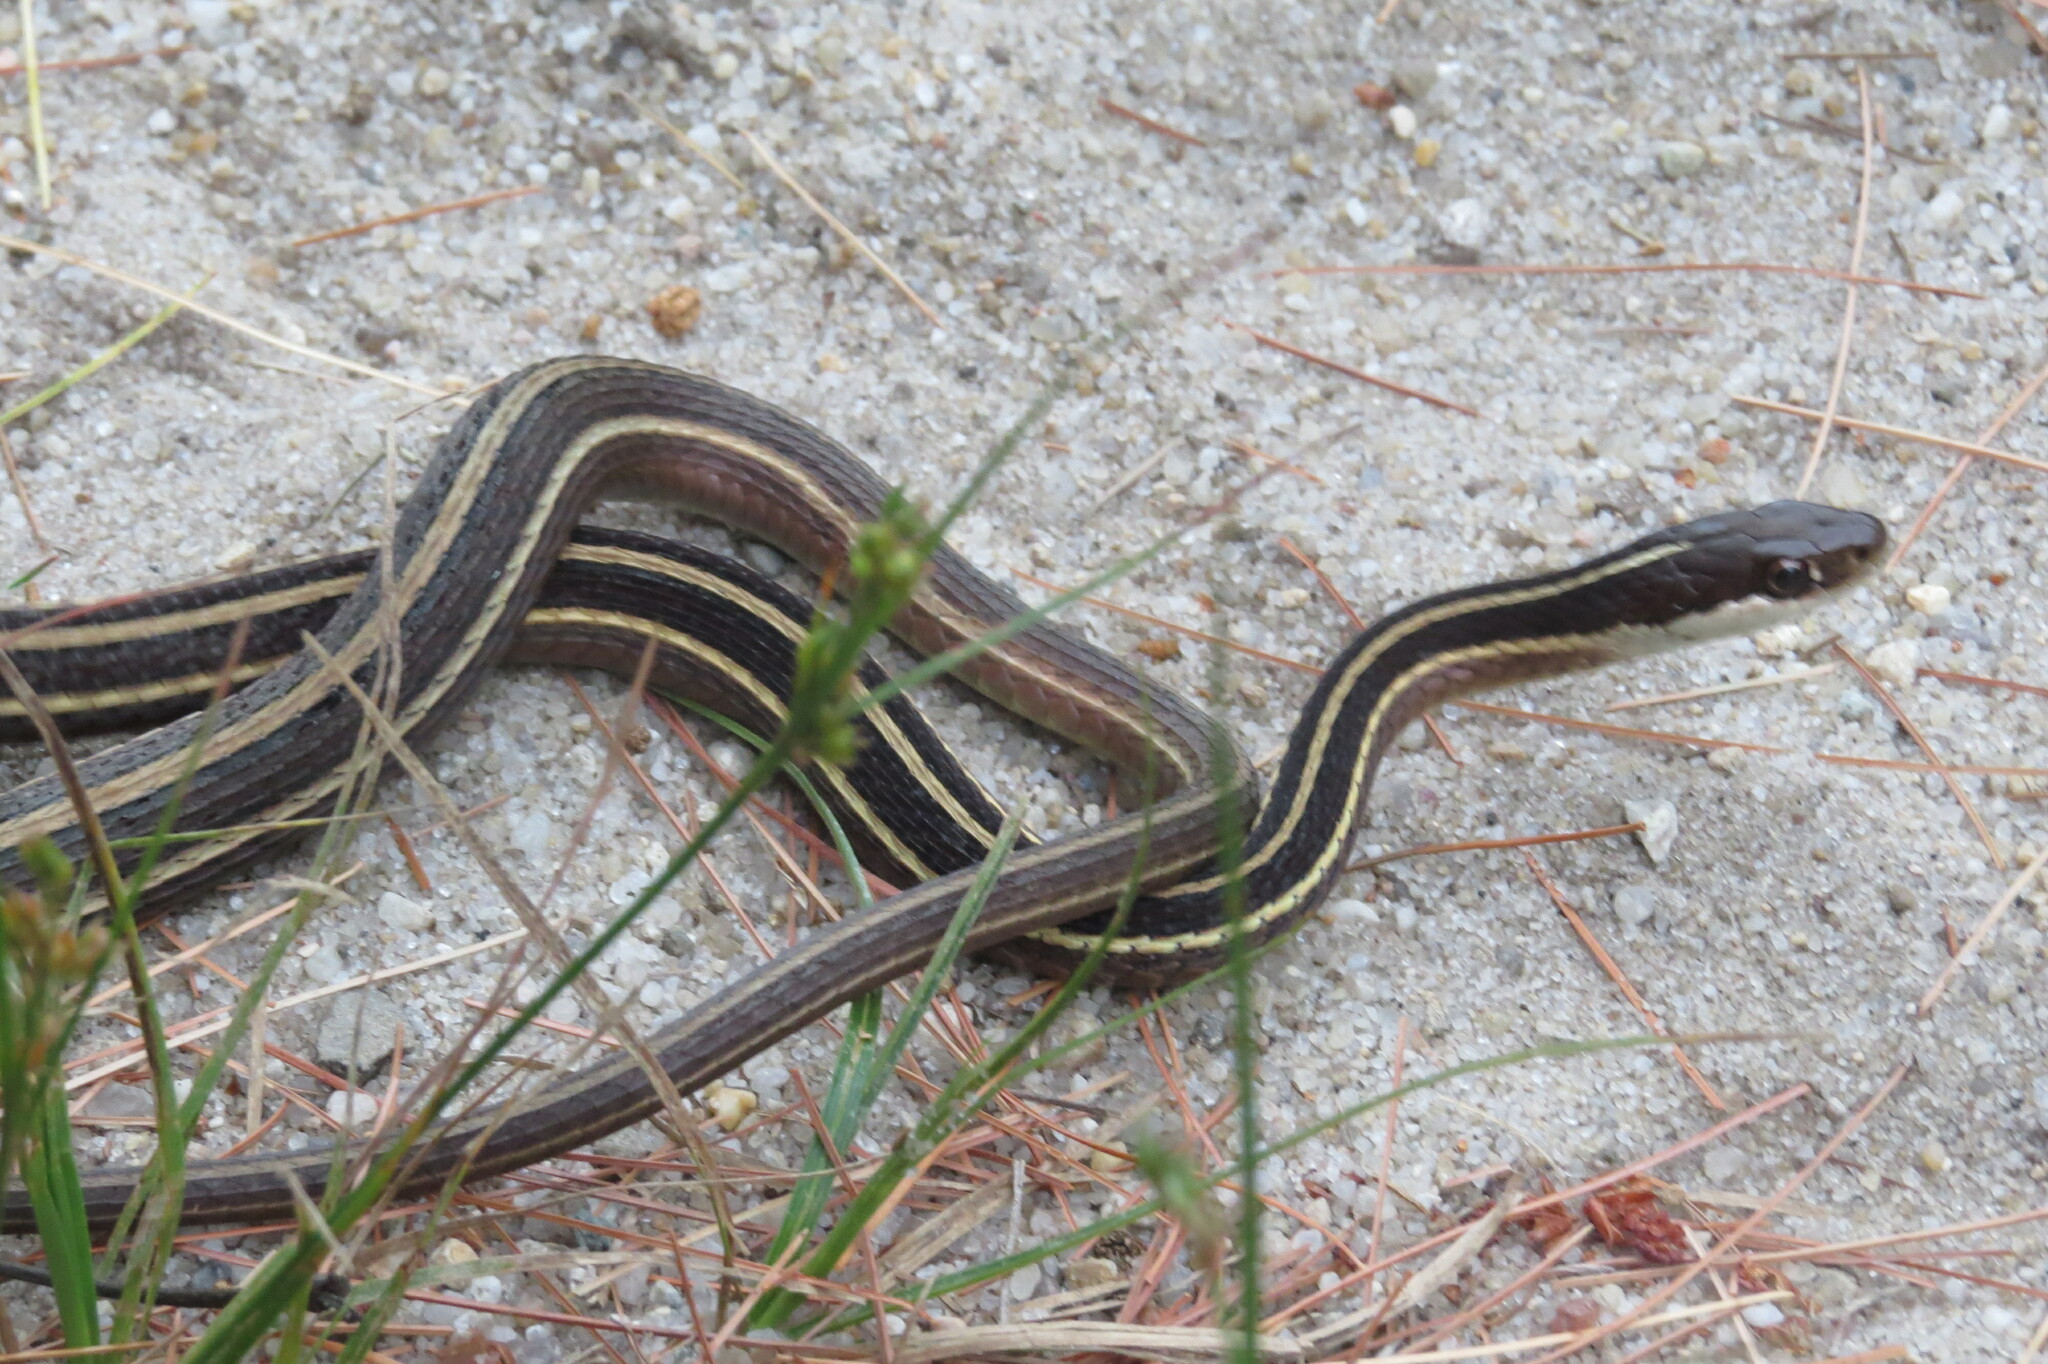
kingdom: Animalia
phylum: Chordata
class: Squamata
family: Colubridae
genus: Thamnophis
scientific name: Thamnophis saurita
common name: Eastern ribbonsnake
